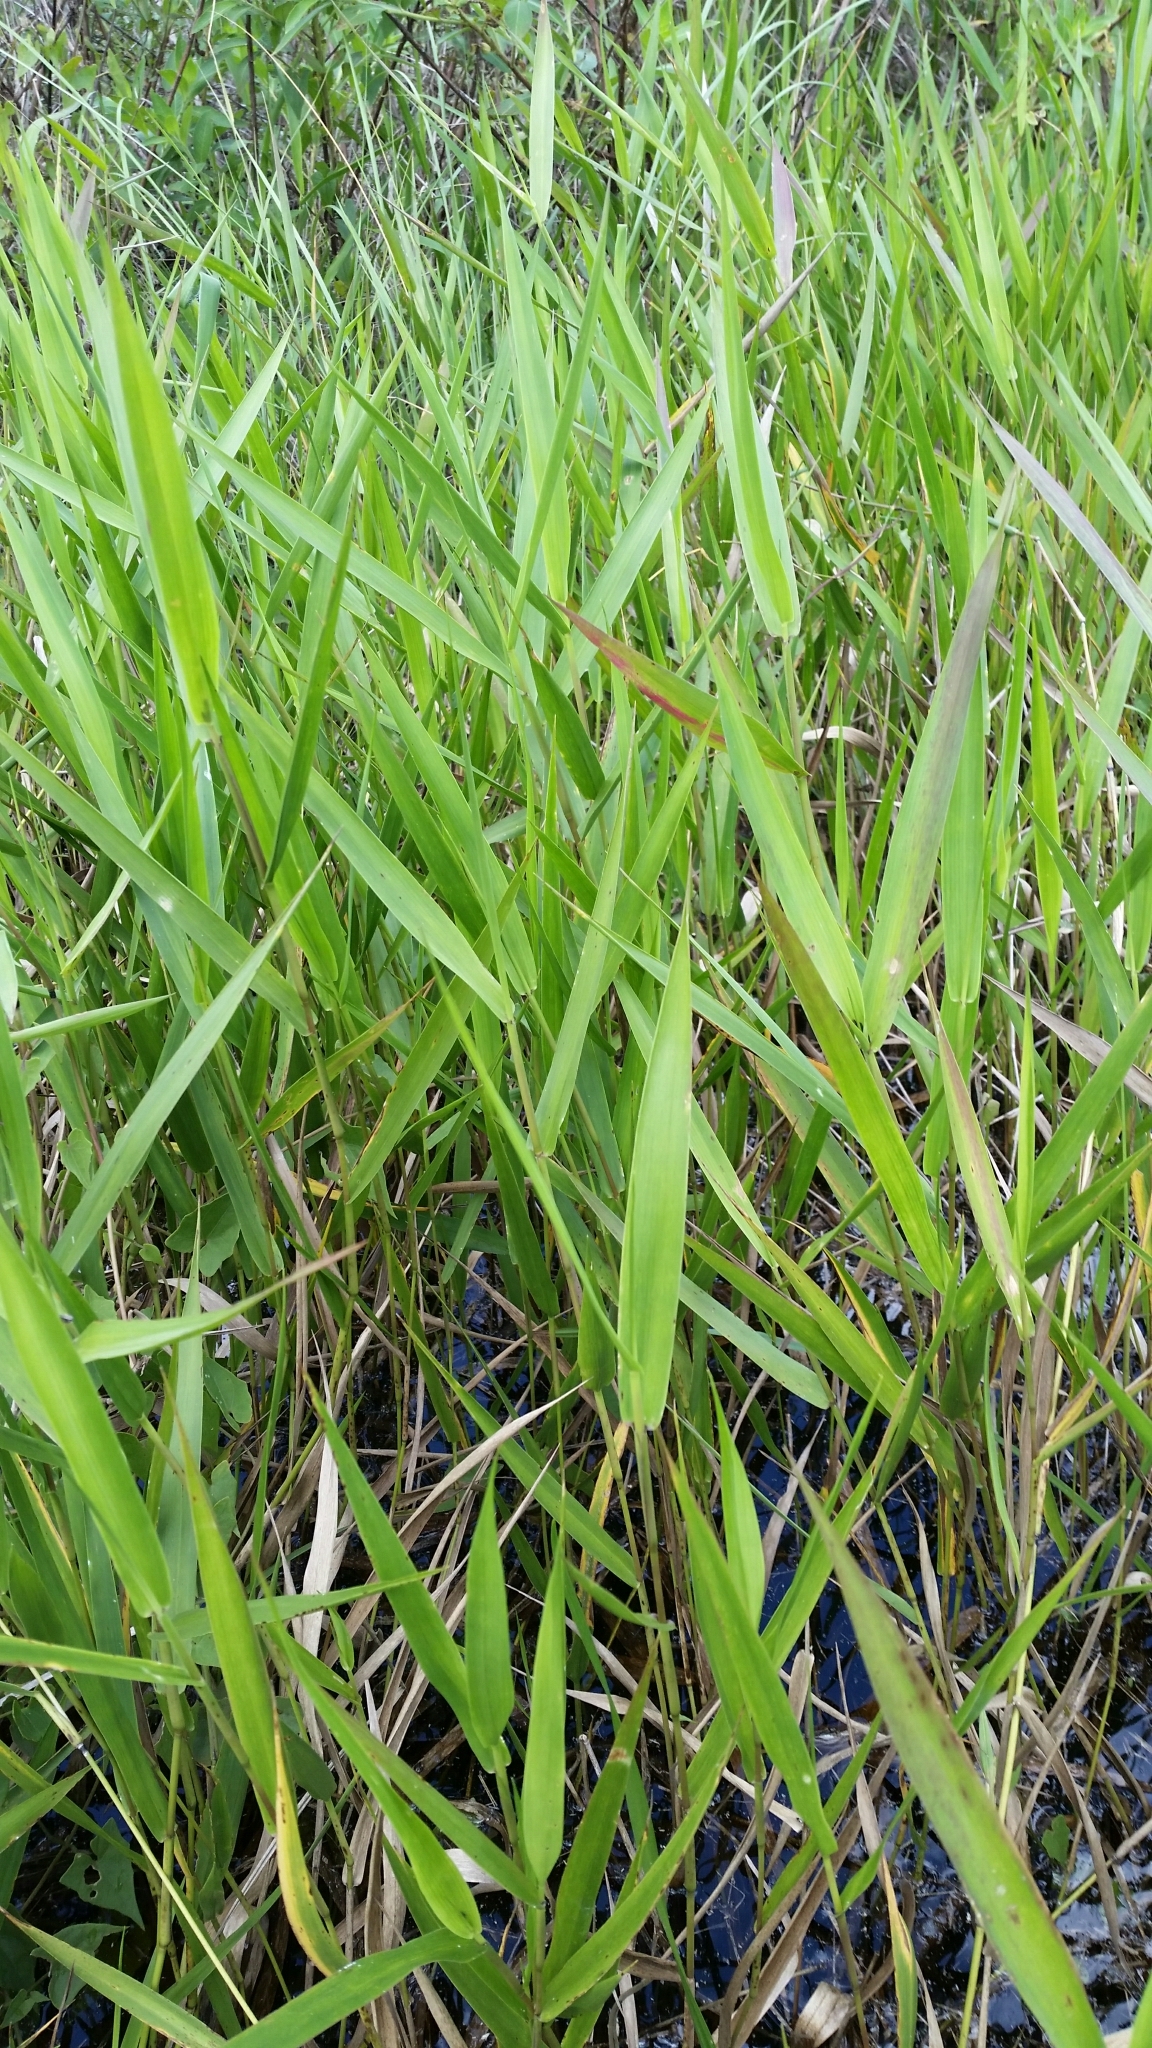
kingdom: Plantae
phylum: Tracheophyta
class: Liliopsida
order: Poales
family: Poaceae
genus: Panicum
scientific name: Panicum hemitomon
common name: Maidencane
